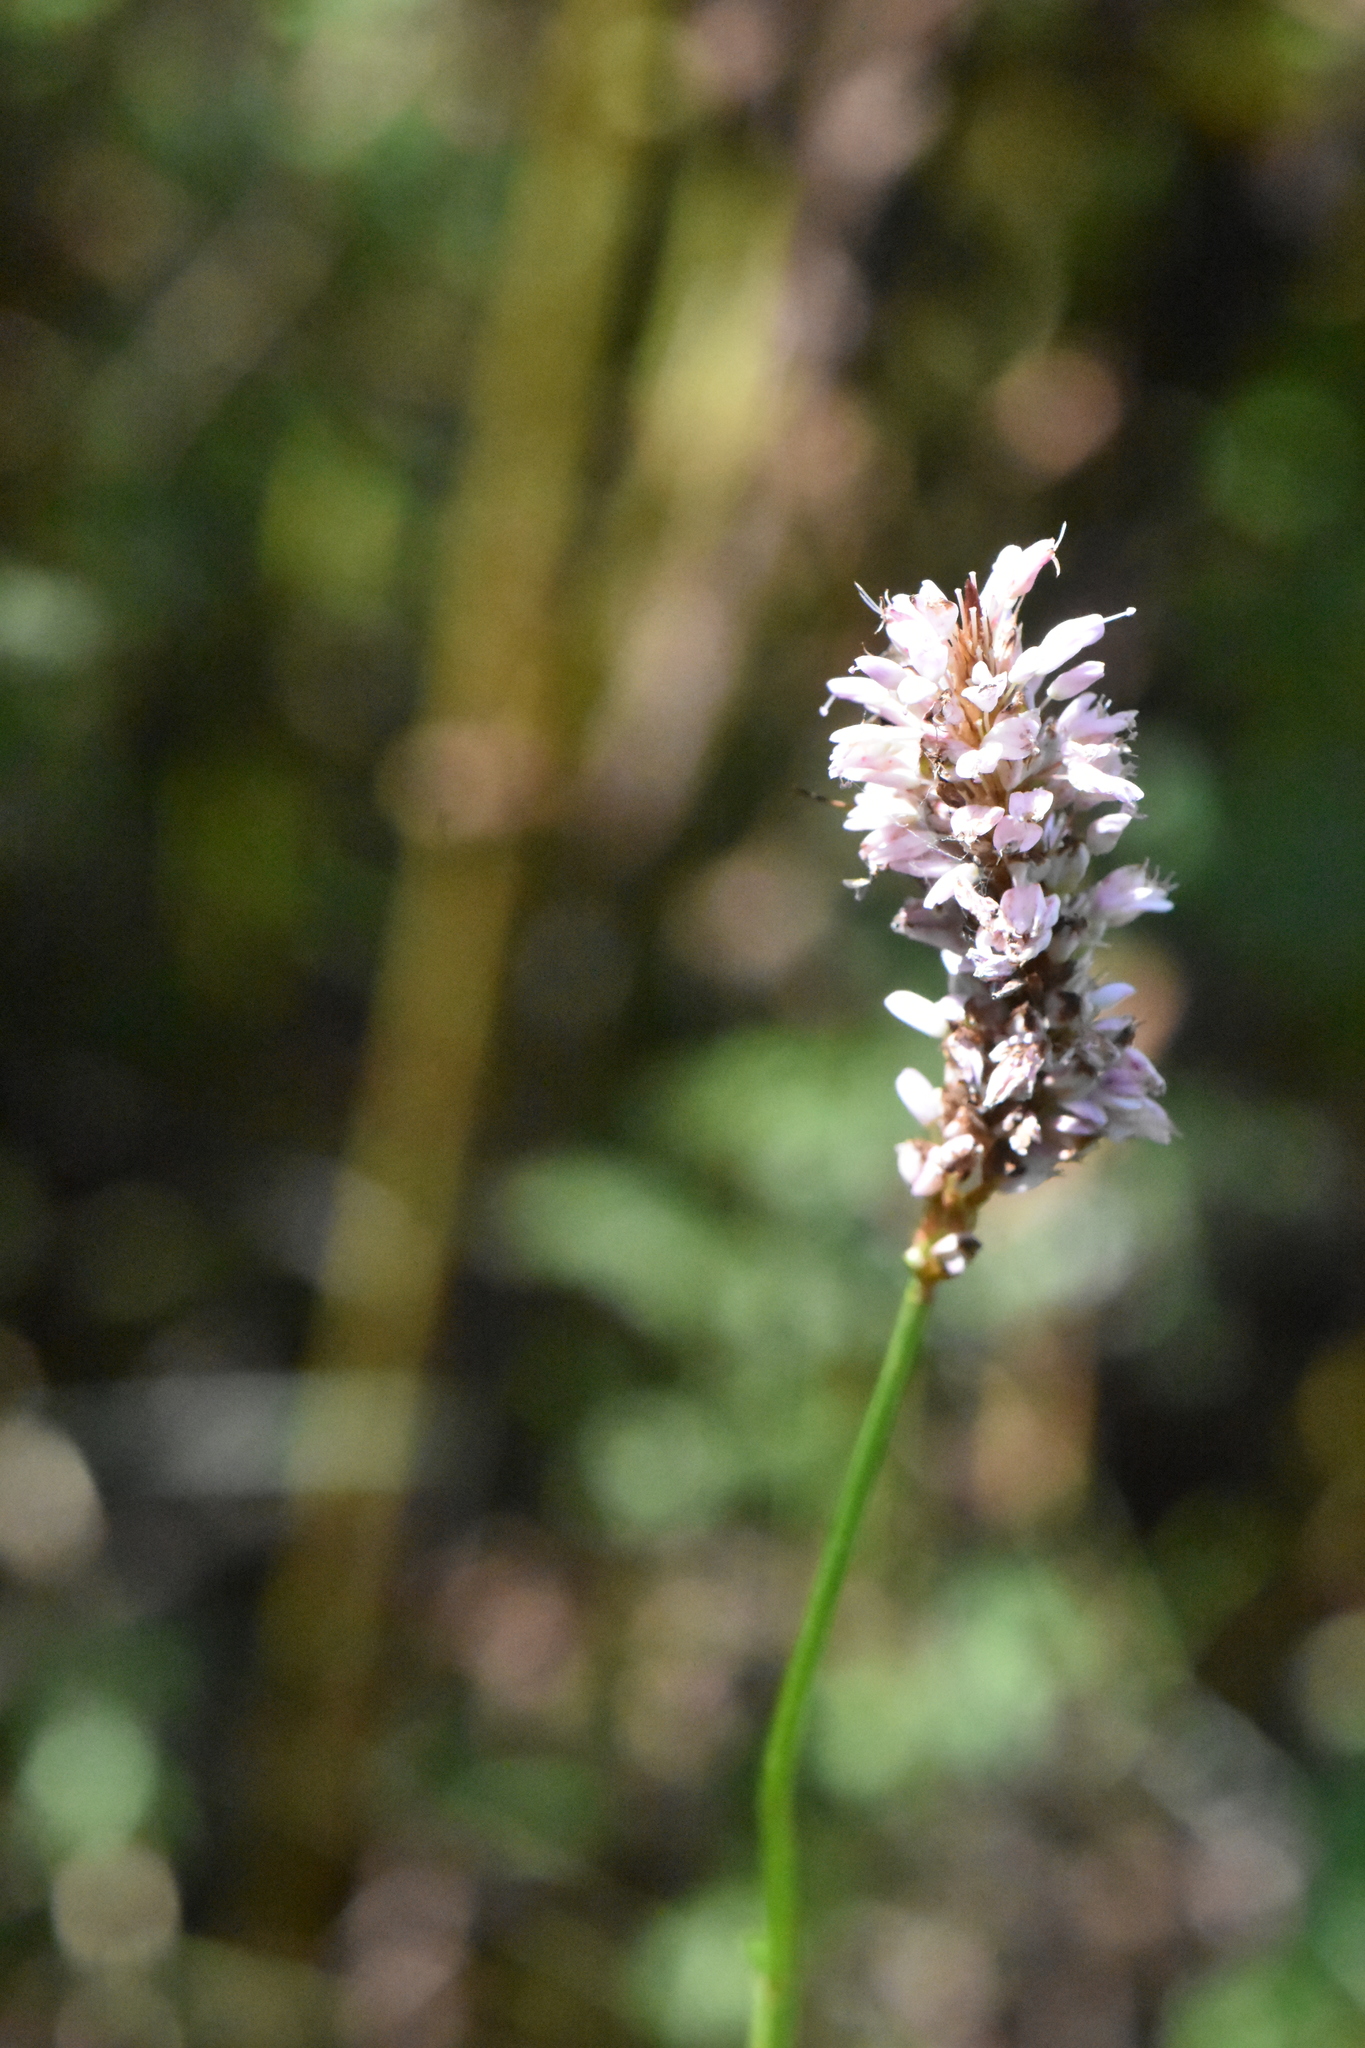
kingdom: Plantae
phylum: Tracheophyta
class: Magnoliopsida
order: Caryophyllales
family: Polygonaceae
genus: Bistorta
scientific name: Bistorta officinalis
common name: Common bistort
